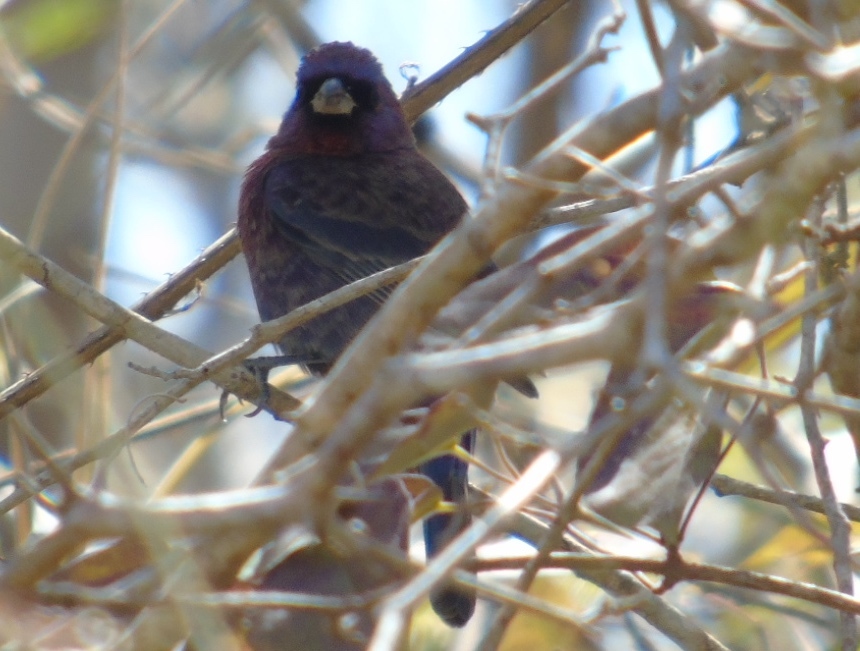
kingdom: Animalia
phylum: Chordata
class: Aves
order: Passeriformes
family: Cardinalidae
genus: Passerina
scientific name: Passerina versicolor
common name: Varied bunting
